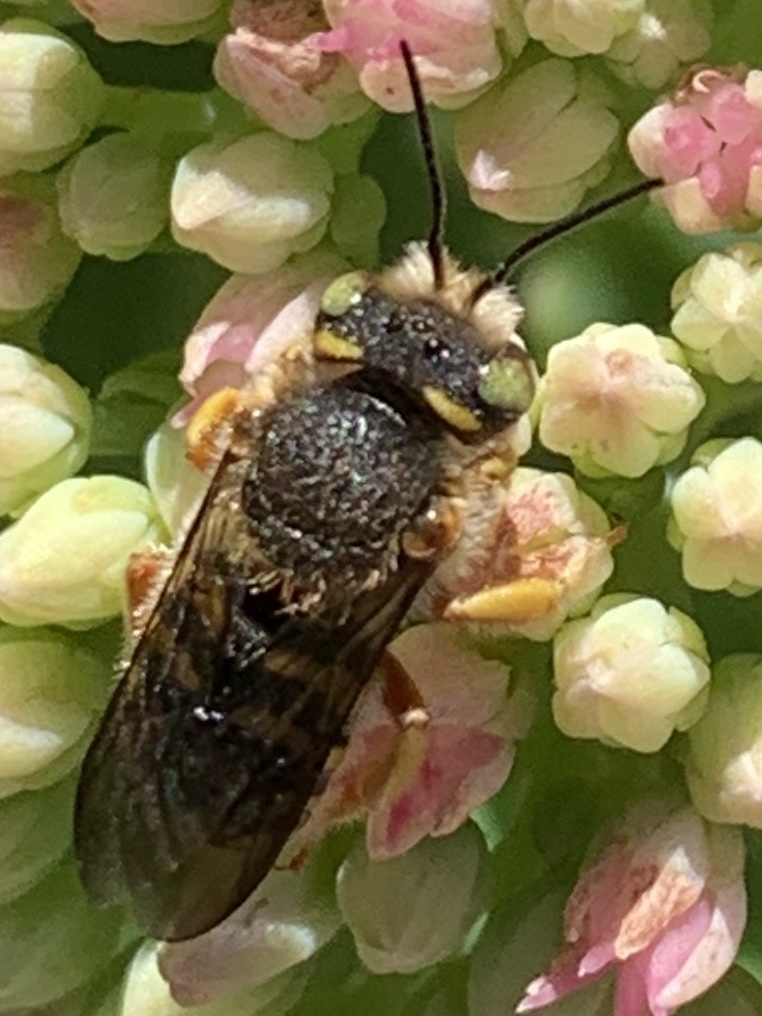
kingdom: Animalia
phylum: Arthropoda
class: Insecta
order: Hymenoptera
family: Megachilidae
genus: Anthidium
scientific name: Anthidium oblongatum
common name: Oblong wool carder bee
